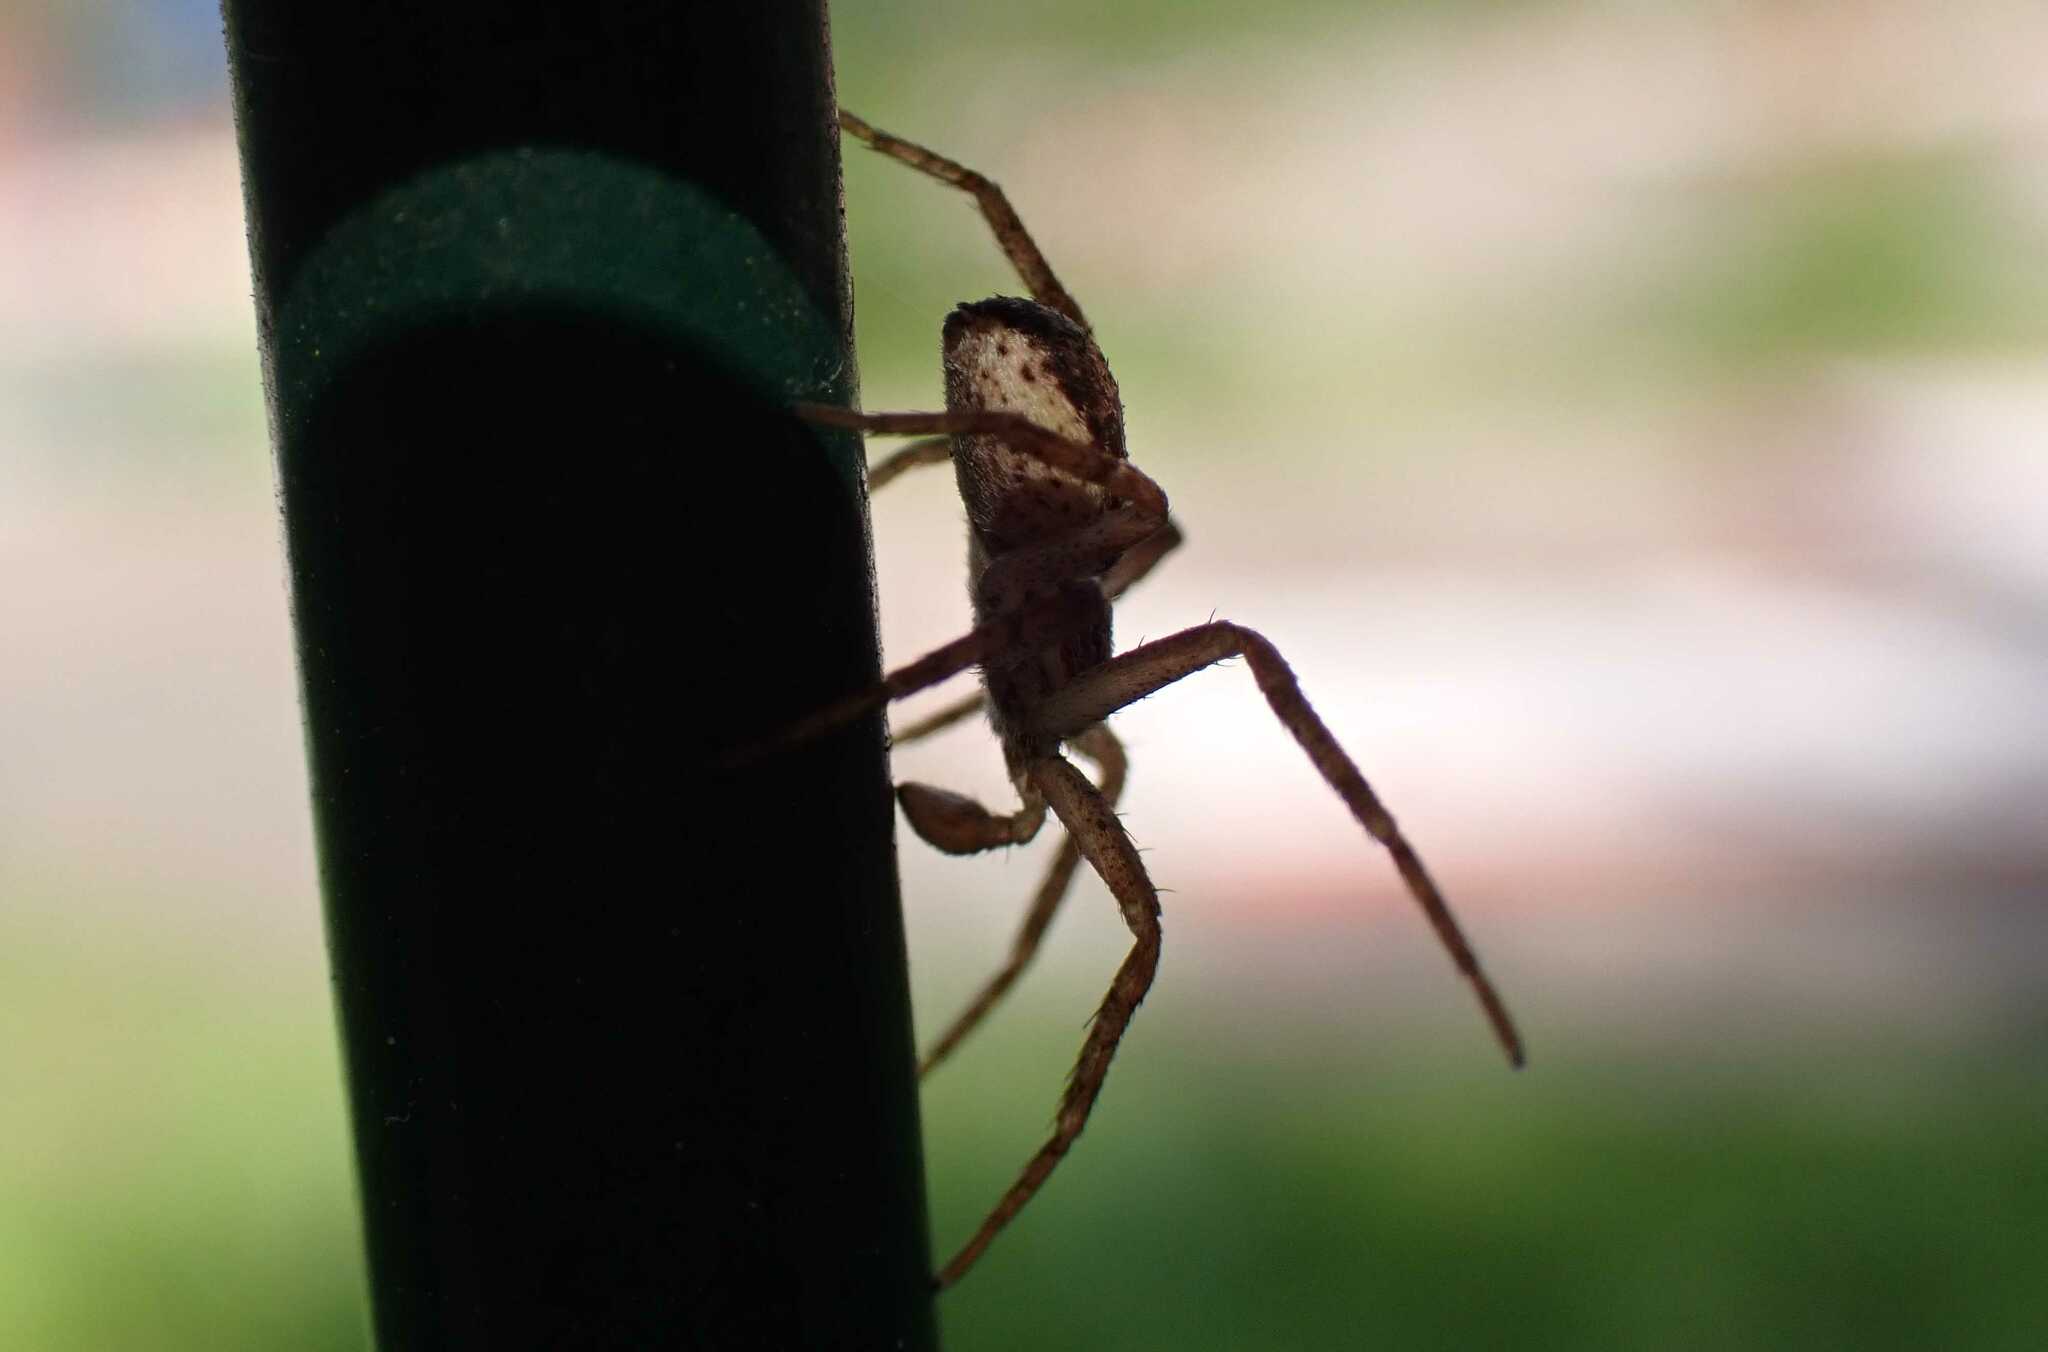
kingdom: Animalia
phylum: Arthropoda
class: Arachnida
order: Araneae
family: Philodromidae
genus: Philodromus
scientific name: Philodromus dispar
